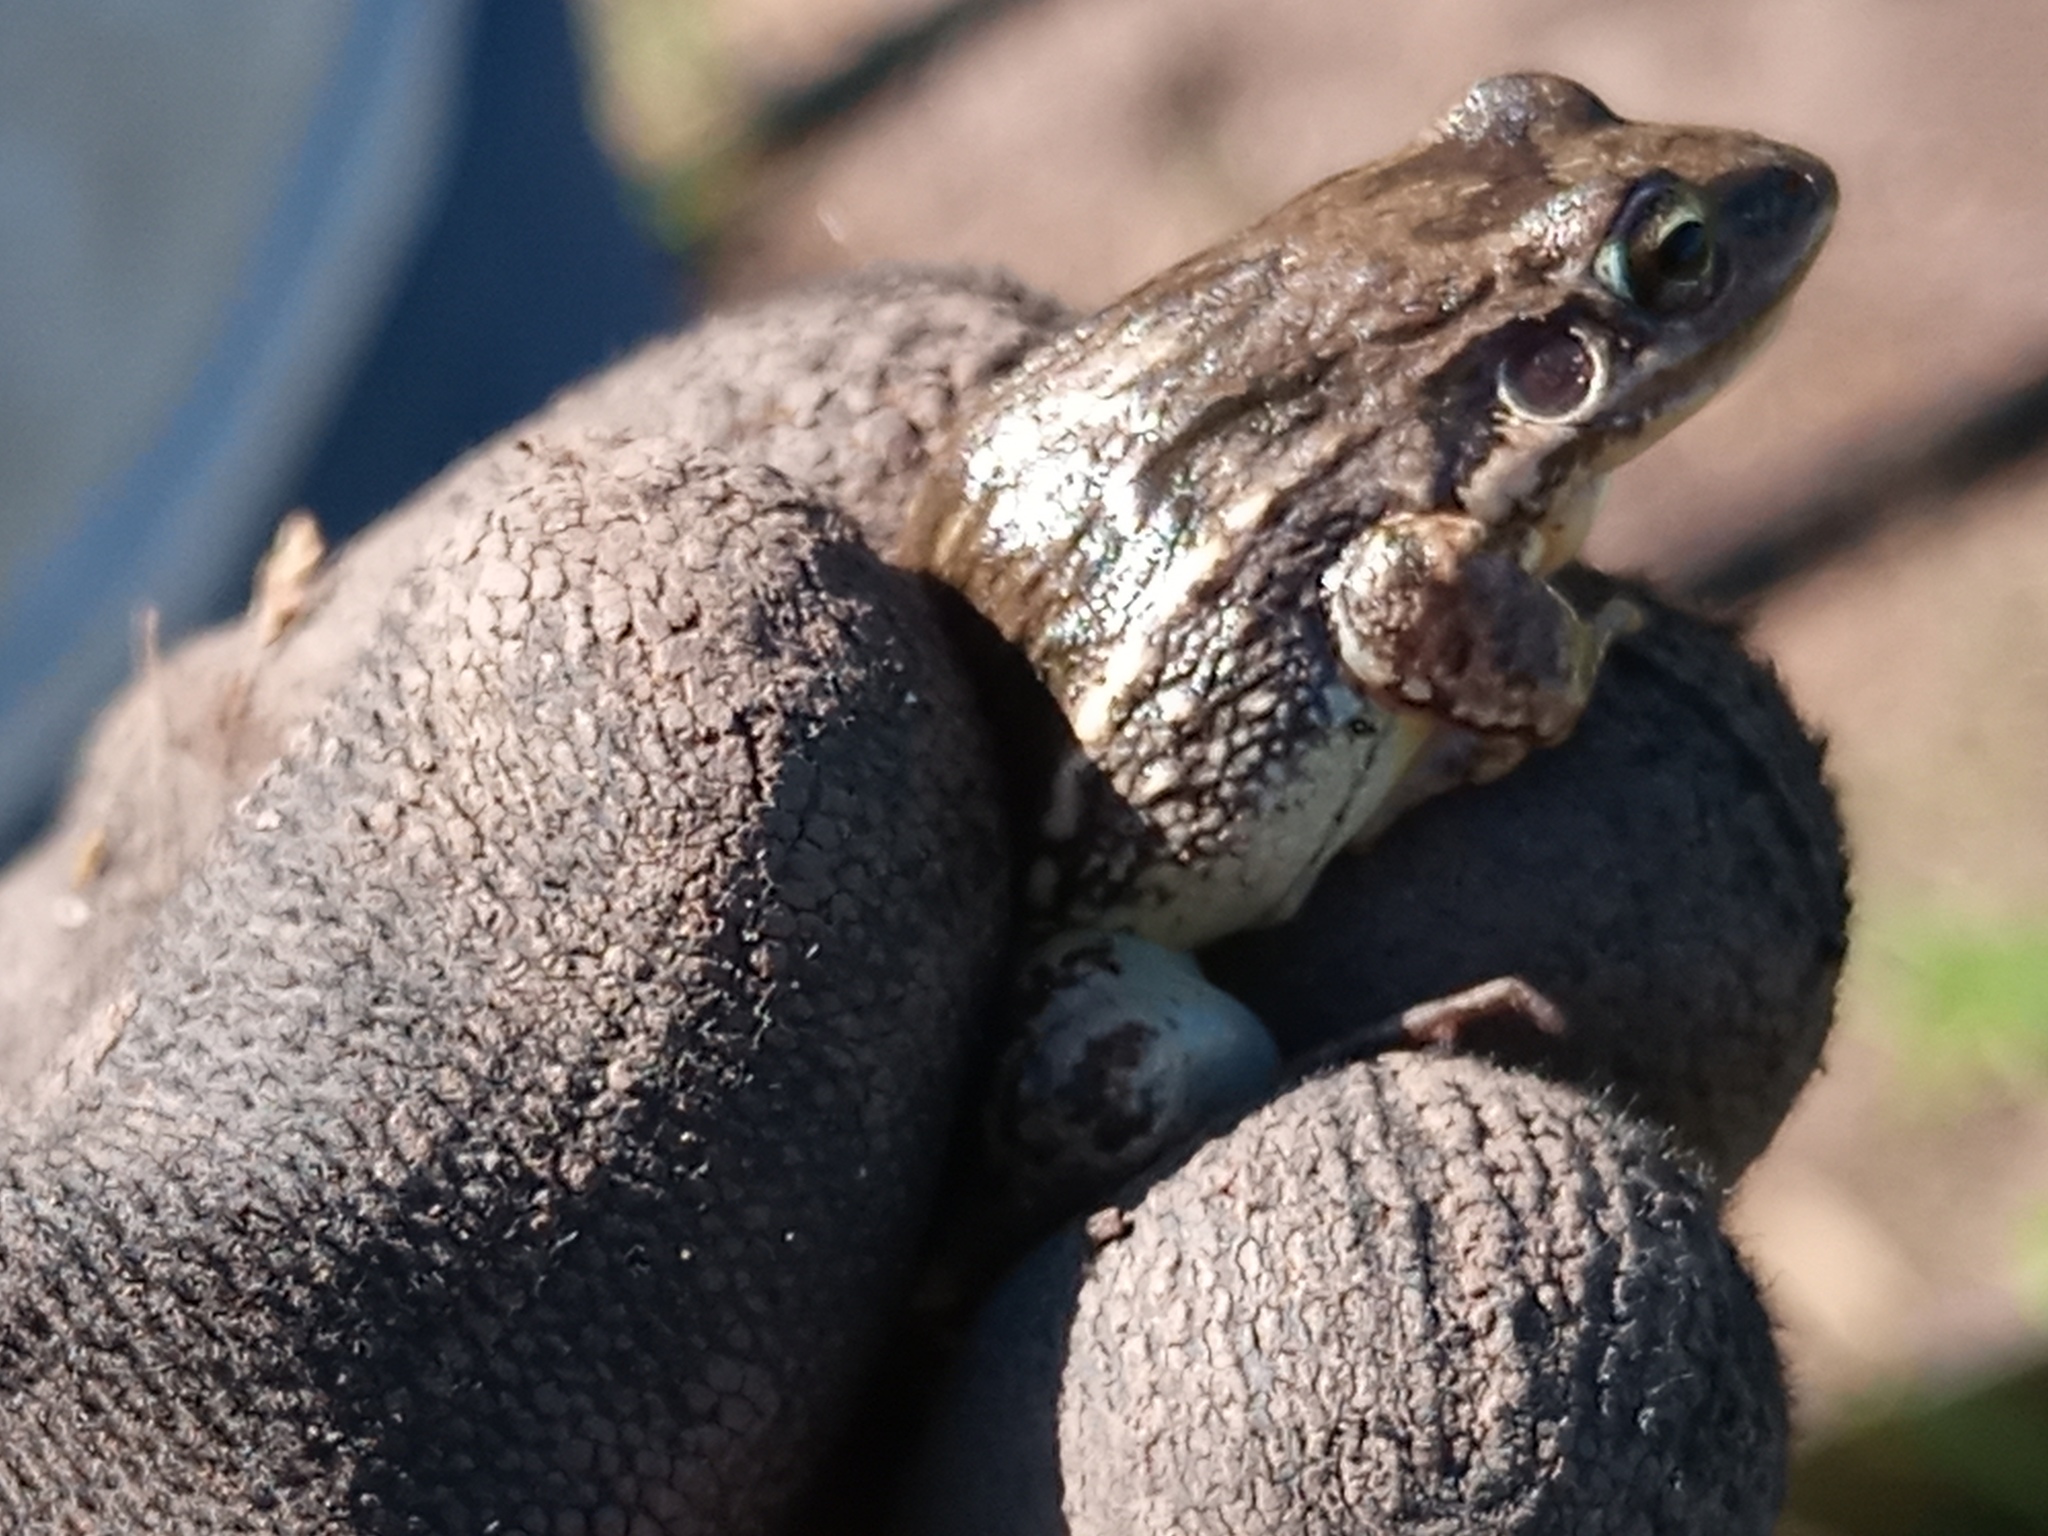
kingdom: Animalia
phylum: Chordata
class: Amphibia
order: Anura
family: Leptodactylidae
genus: Leptodactylus
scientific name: Leptodactylus latinasus
